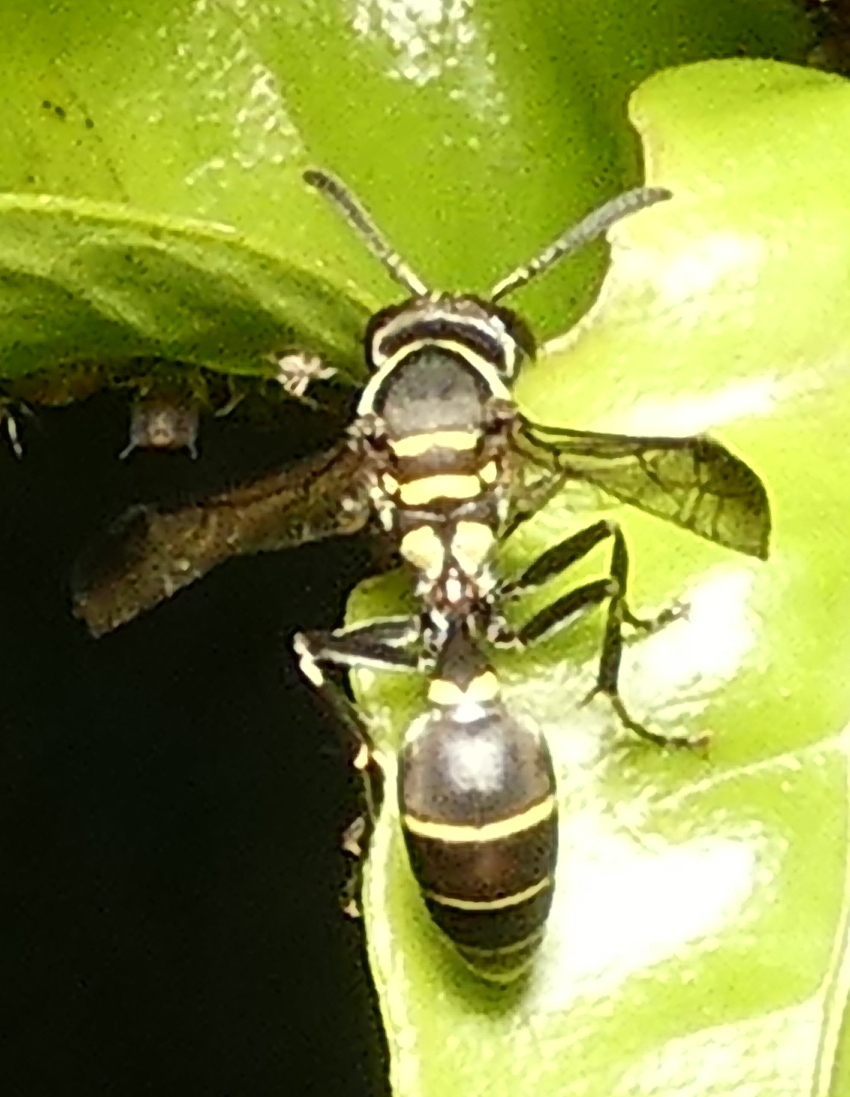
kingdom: Animalia
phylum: Arthropoda
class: Insecta
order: Hymenoptera
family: Eumenidae
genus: Polybia
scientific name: Polybia occidentalis
